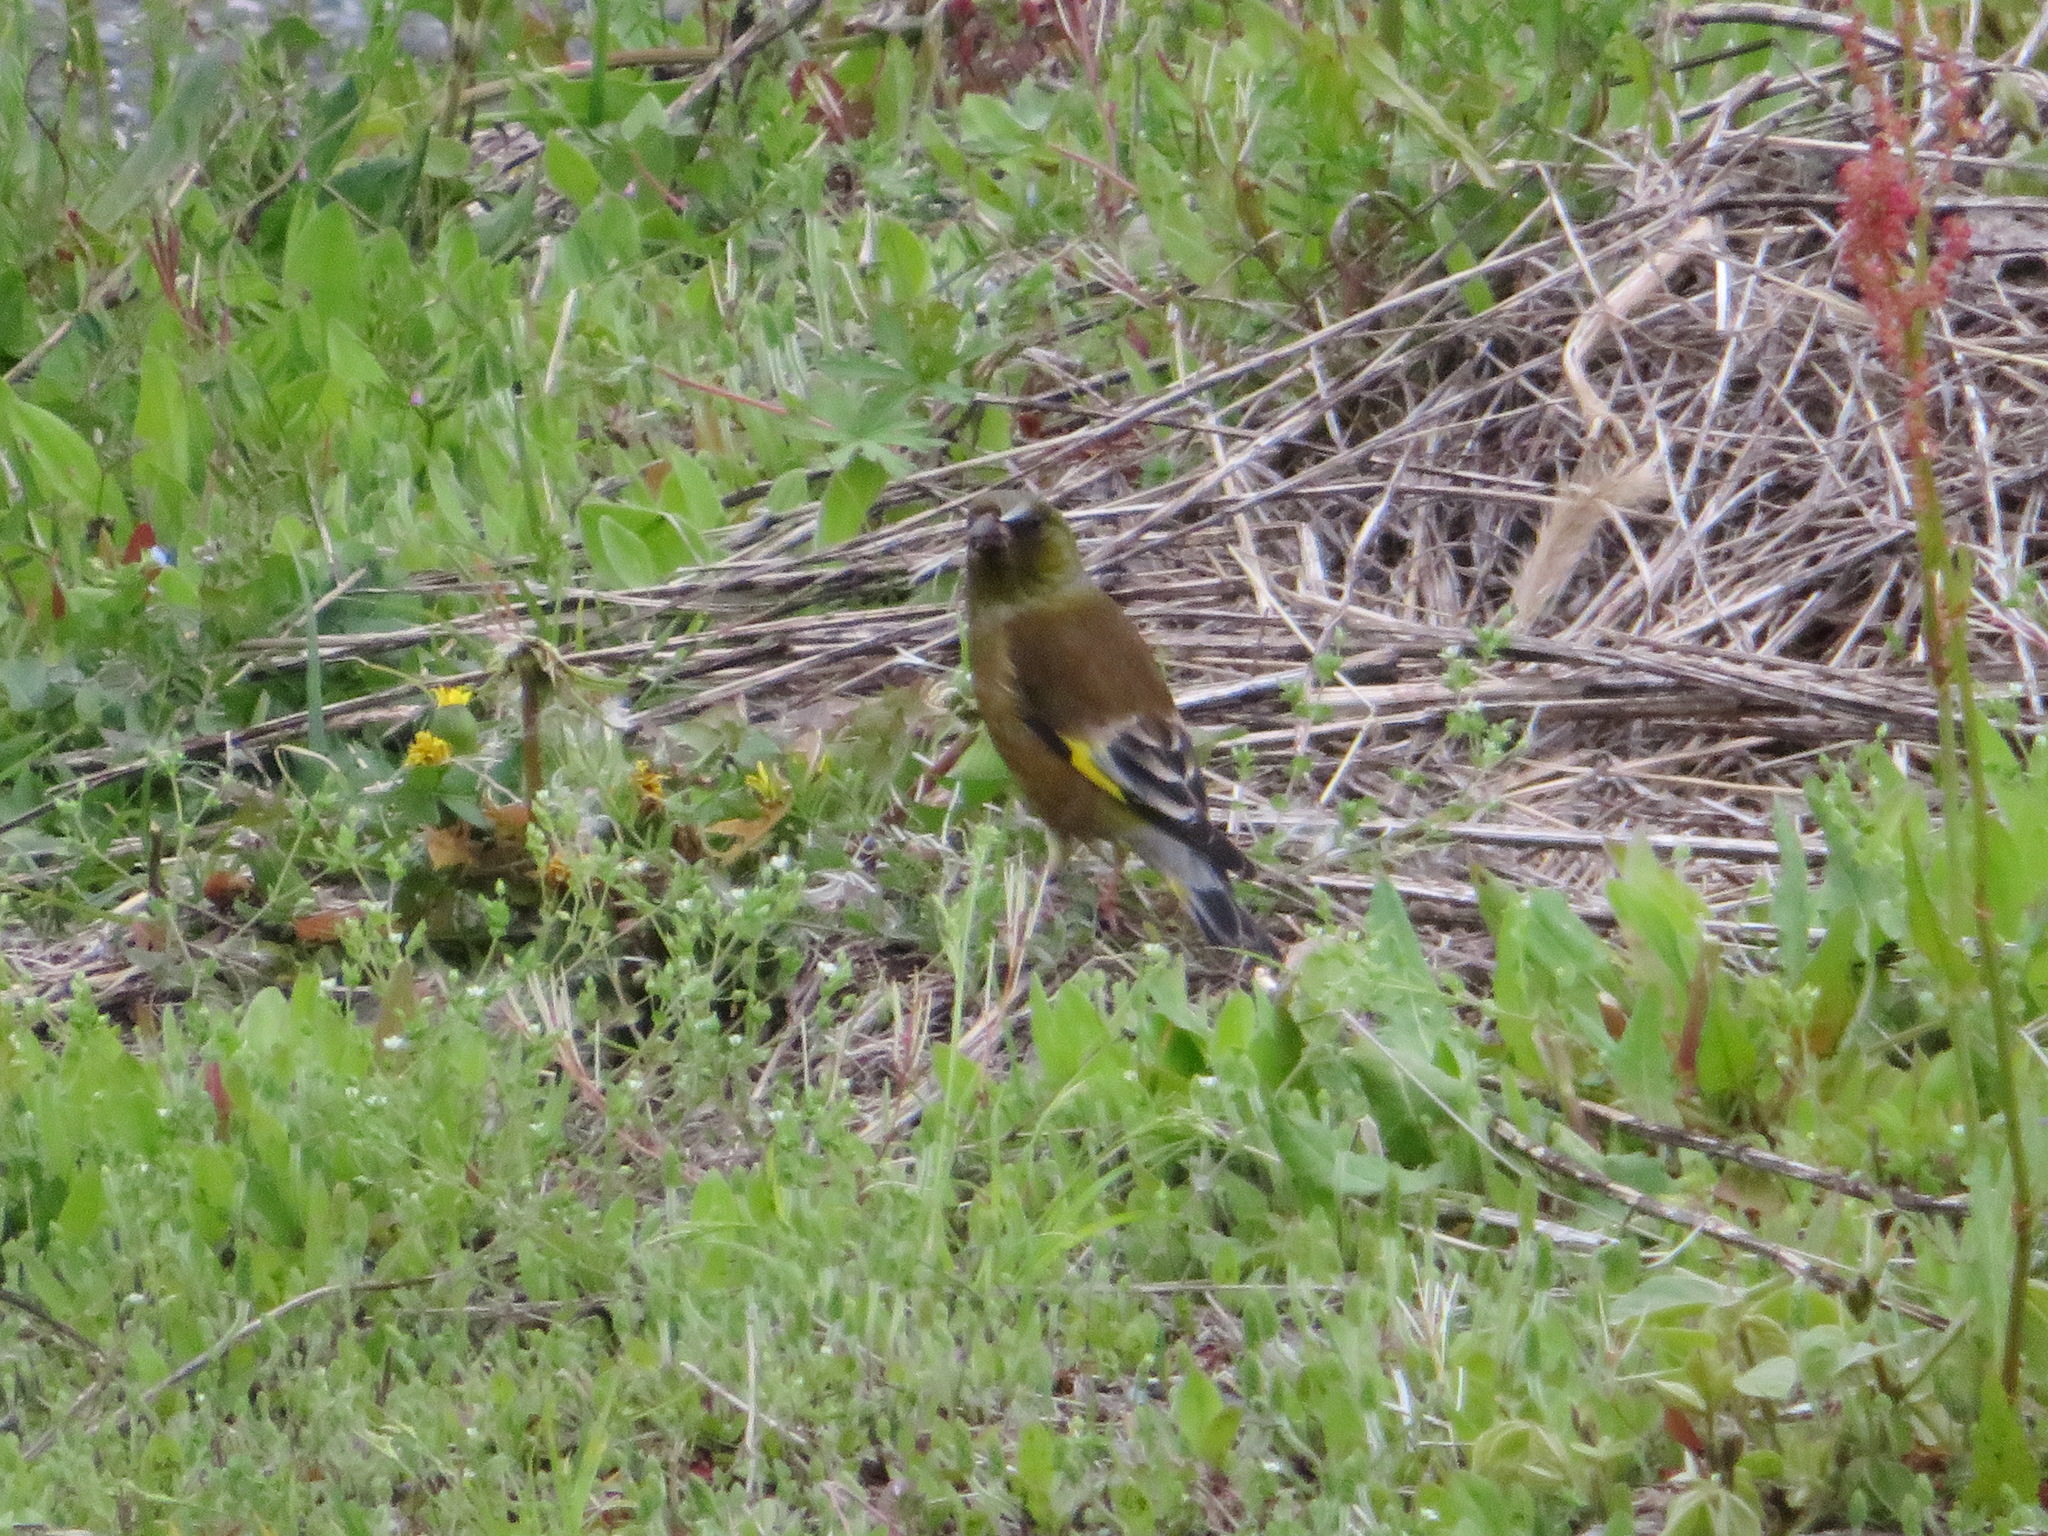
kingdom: Plantae
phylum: Tracheophyta
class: Liliopsida
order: Poales
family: Poaceae
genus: Chloris
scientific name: Chloris sinica
